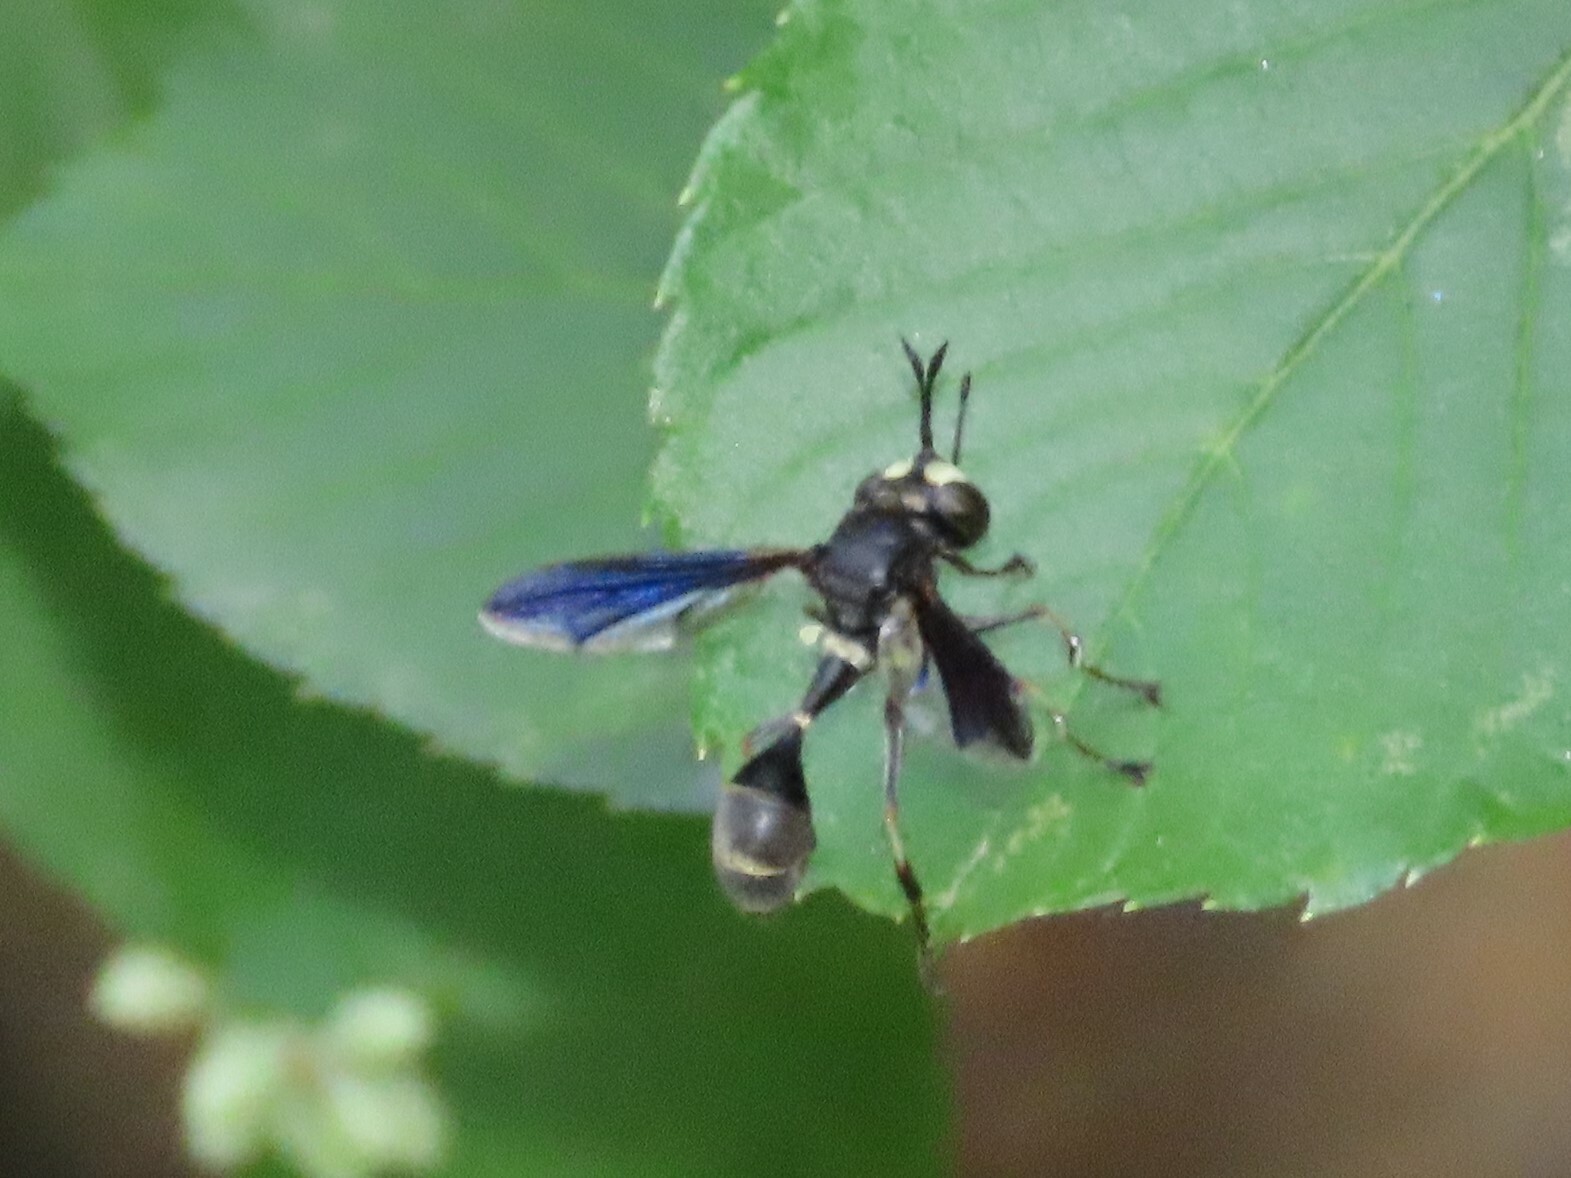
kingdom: Animalia
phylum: Arthropoda
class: Insecta
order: Diptera
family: Conopidae
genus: Physocephala
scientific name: Physocephala tibialis
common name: Common eastern physocephala
